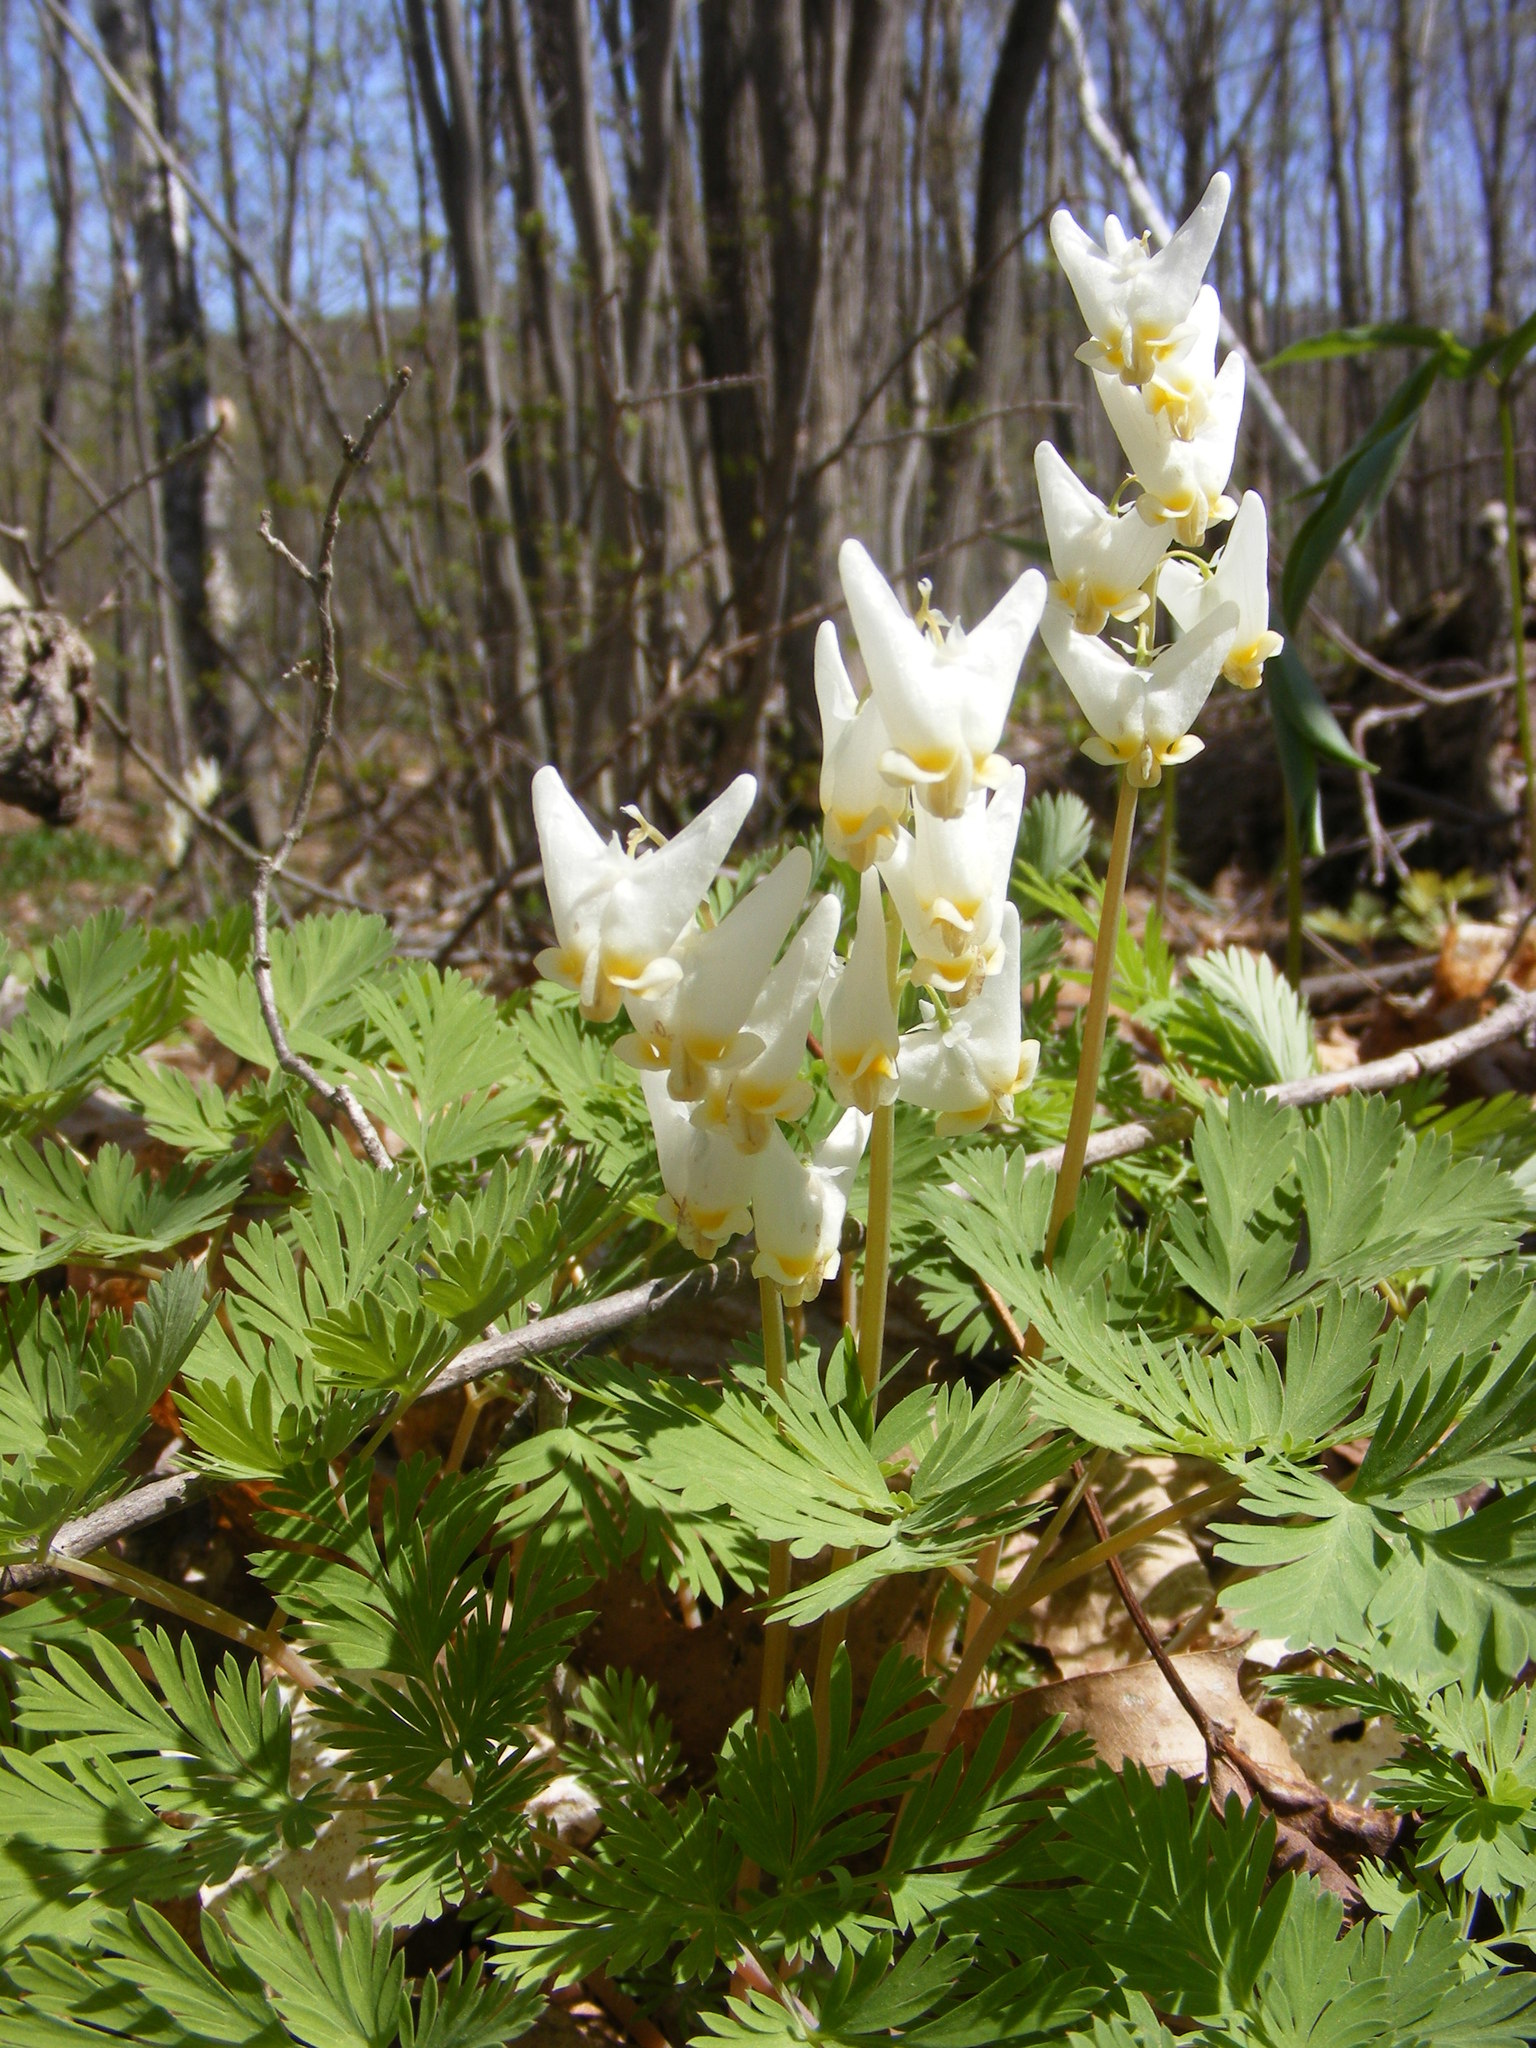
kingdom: Plantae
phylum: Tracheophyta
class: Magnoliopsida
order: Ranunculales
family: Papaveraceae
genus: Dicentra
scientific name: Dicentra cucullaria
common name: Dutchman's breeches
